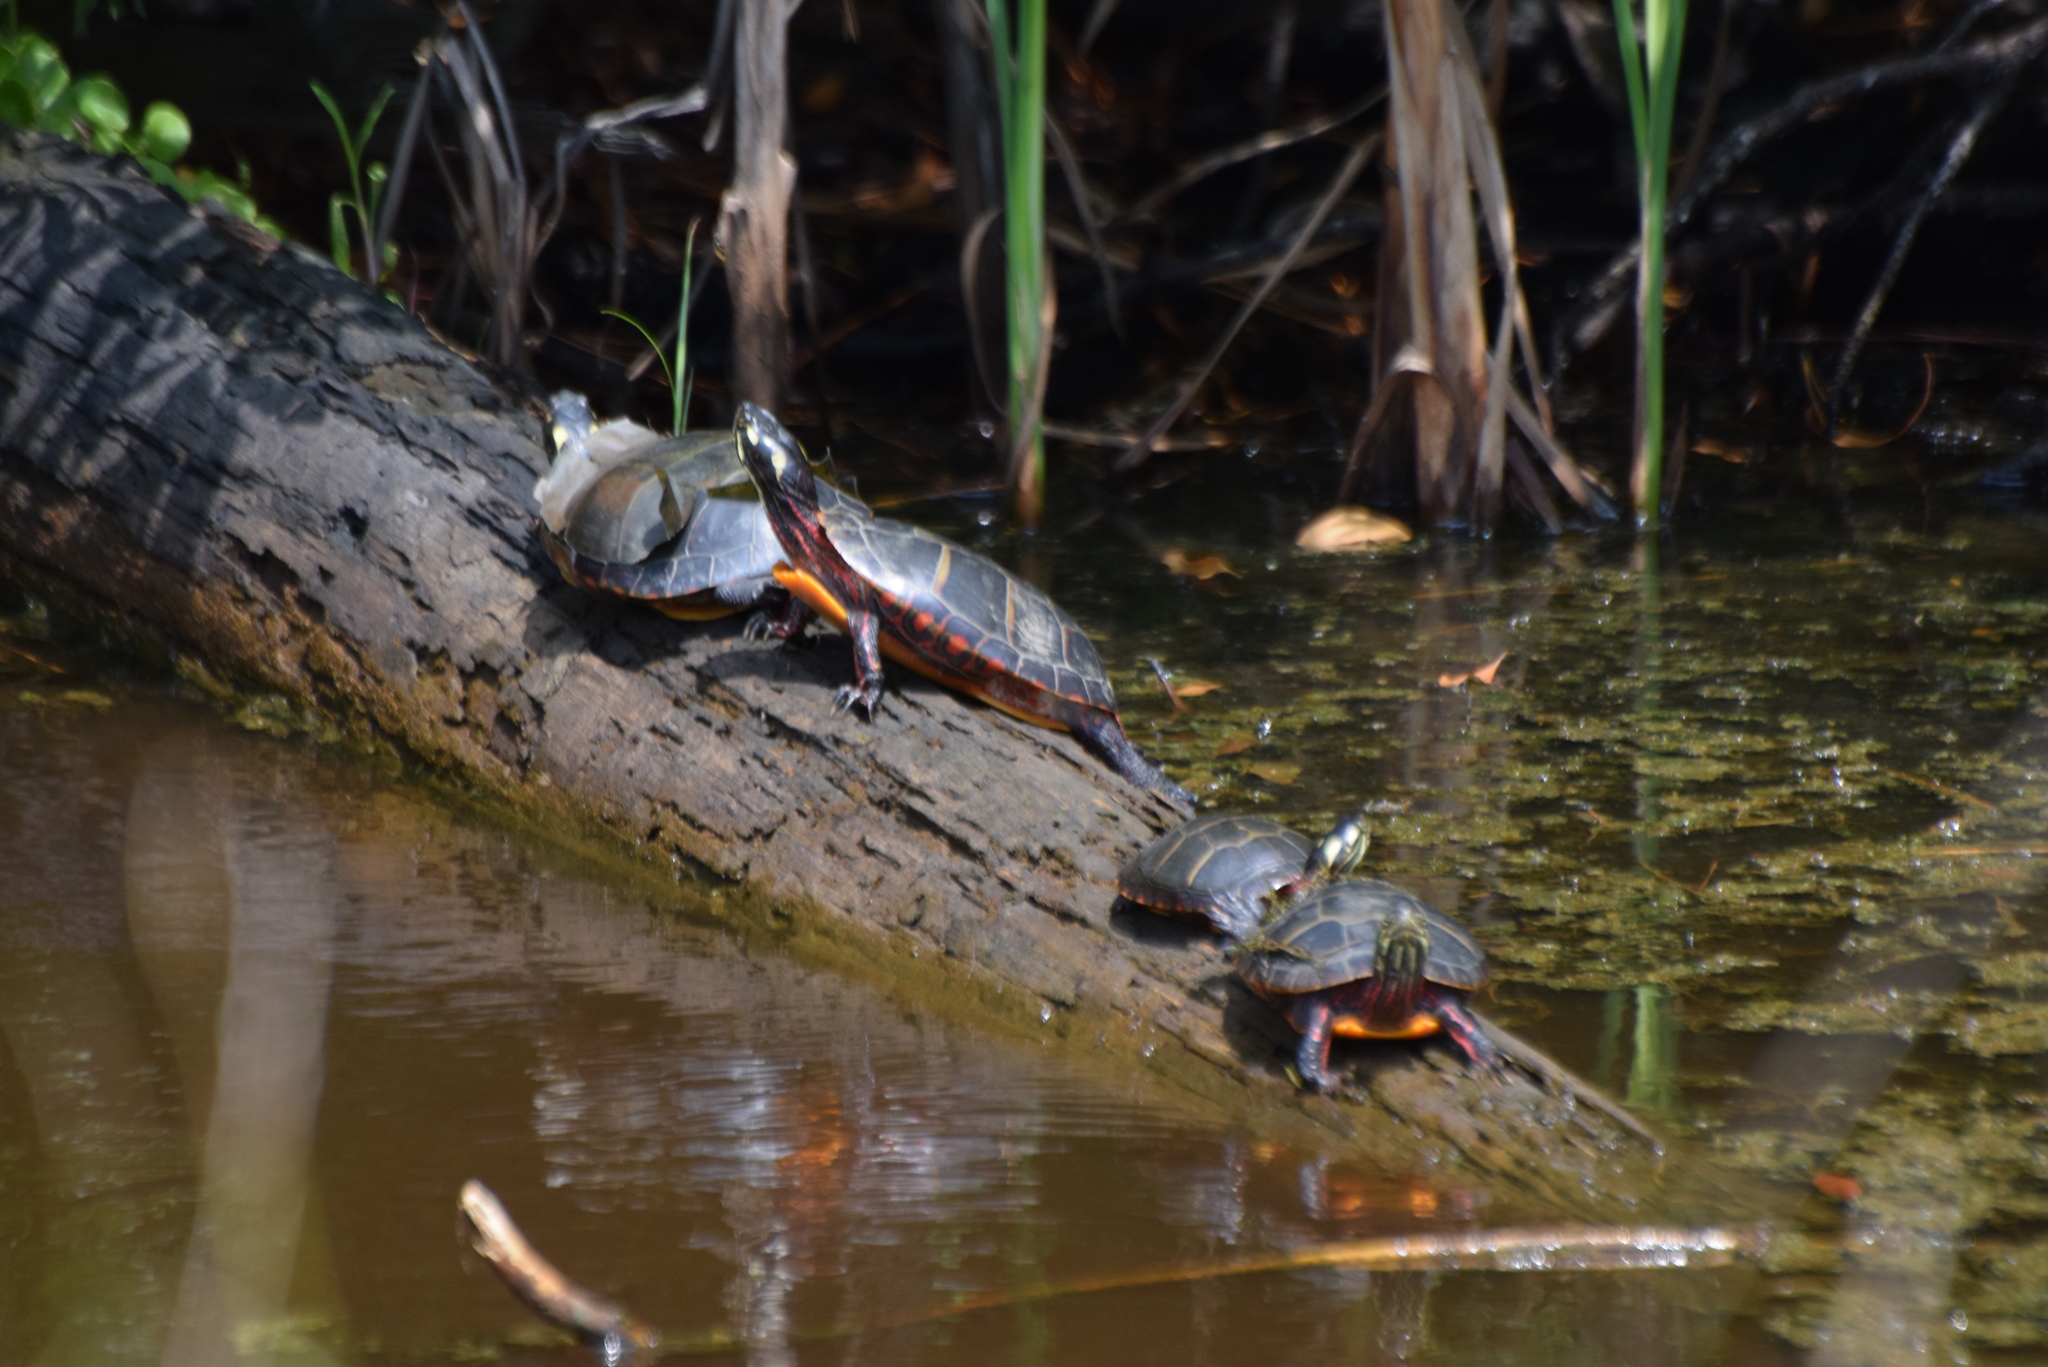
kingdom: Animalia
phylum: Chordata
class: Testudines
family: Emydidae
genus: Chrysemys
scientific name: Chrysemys picta
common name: Painted turtle
